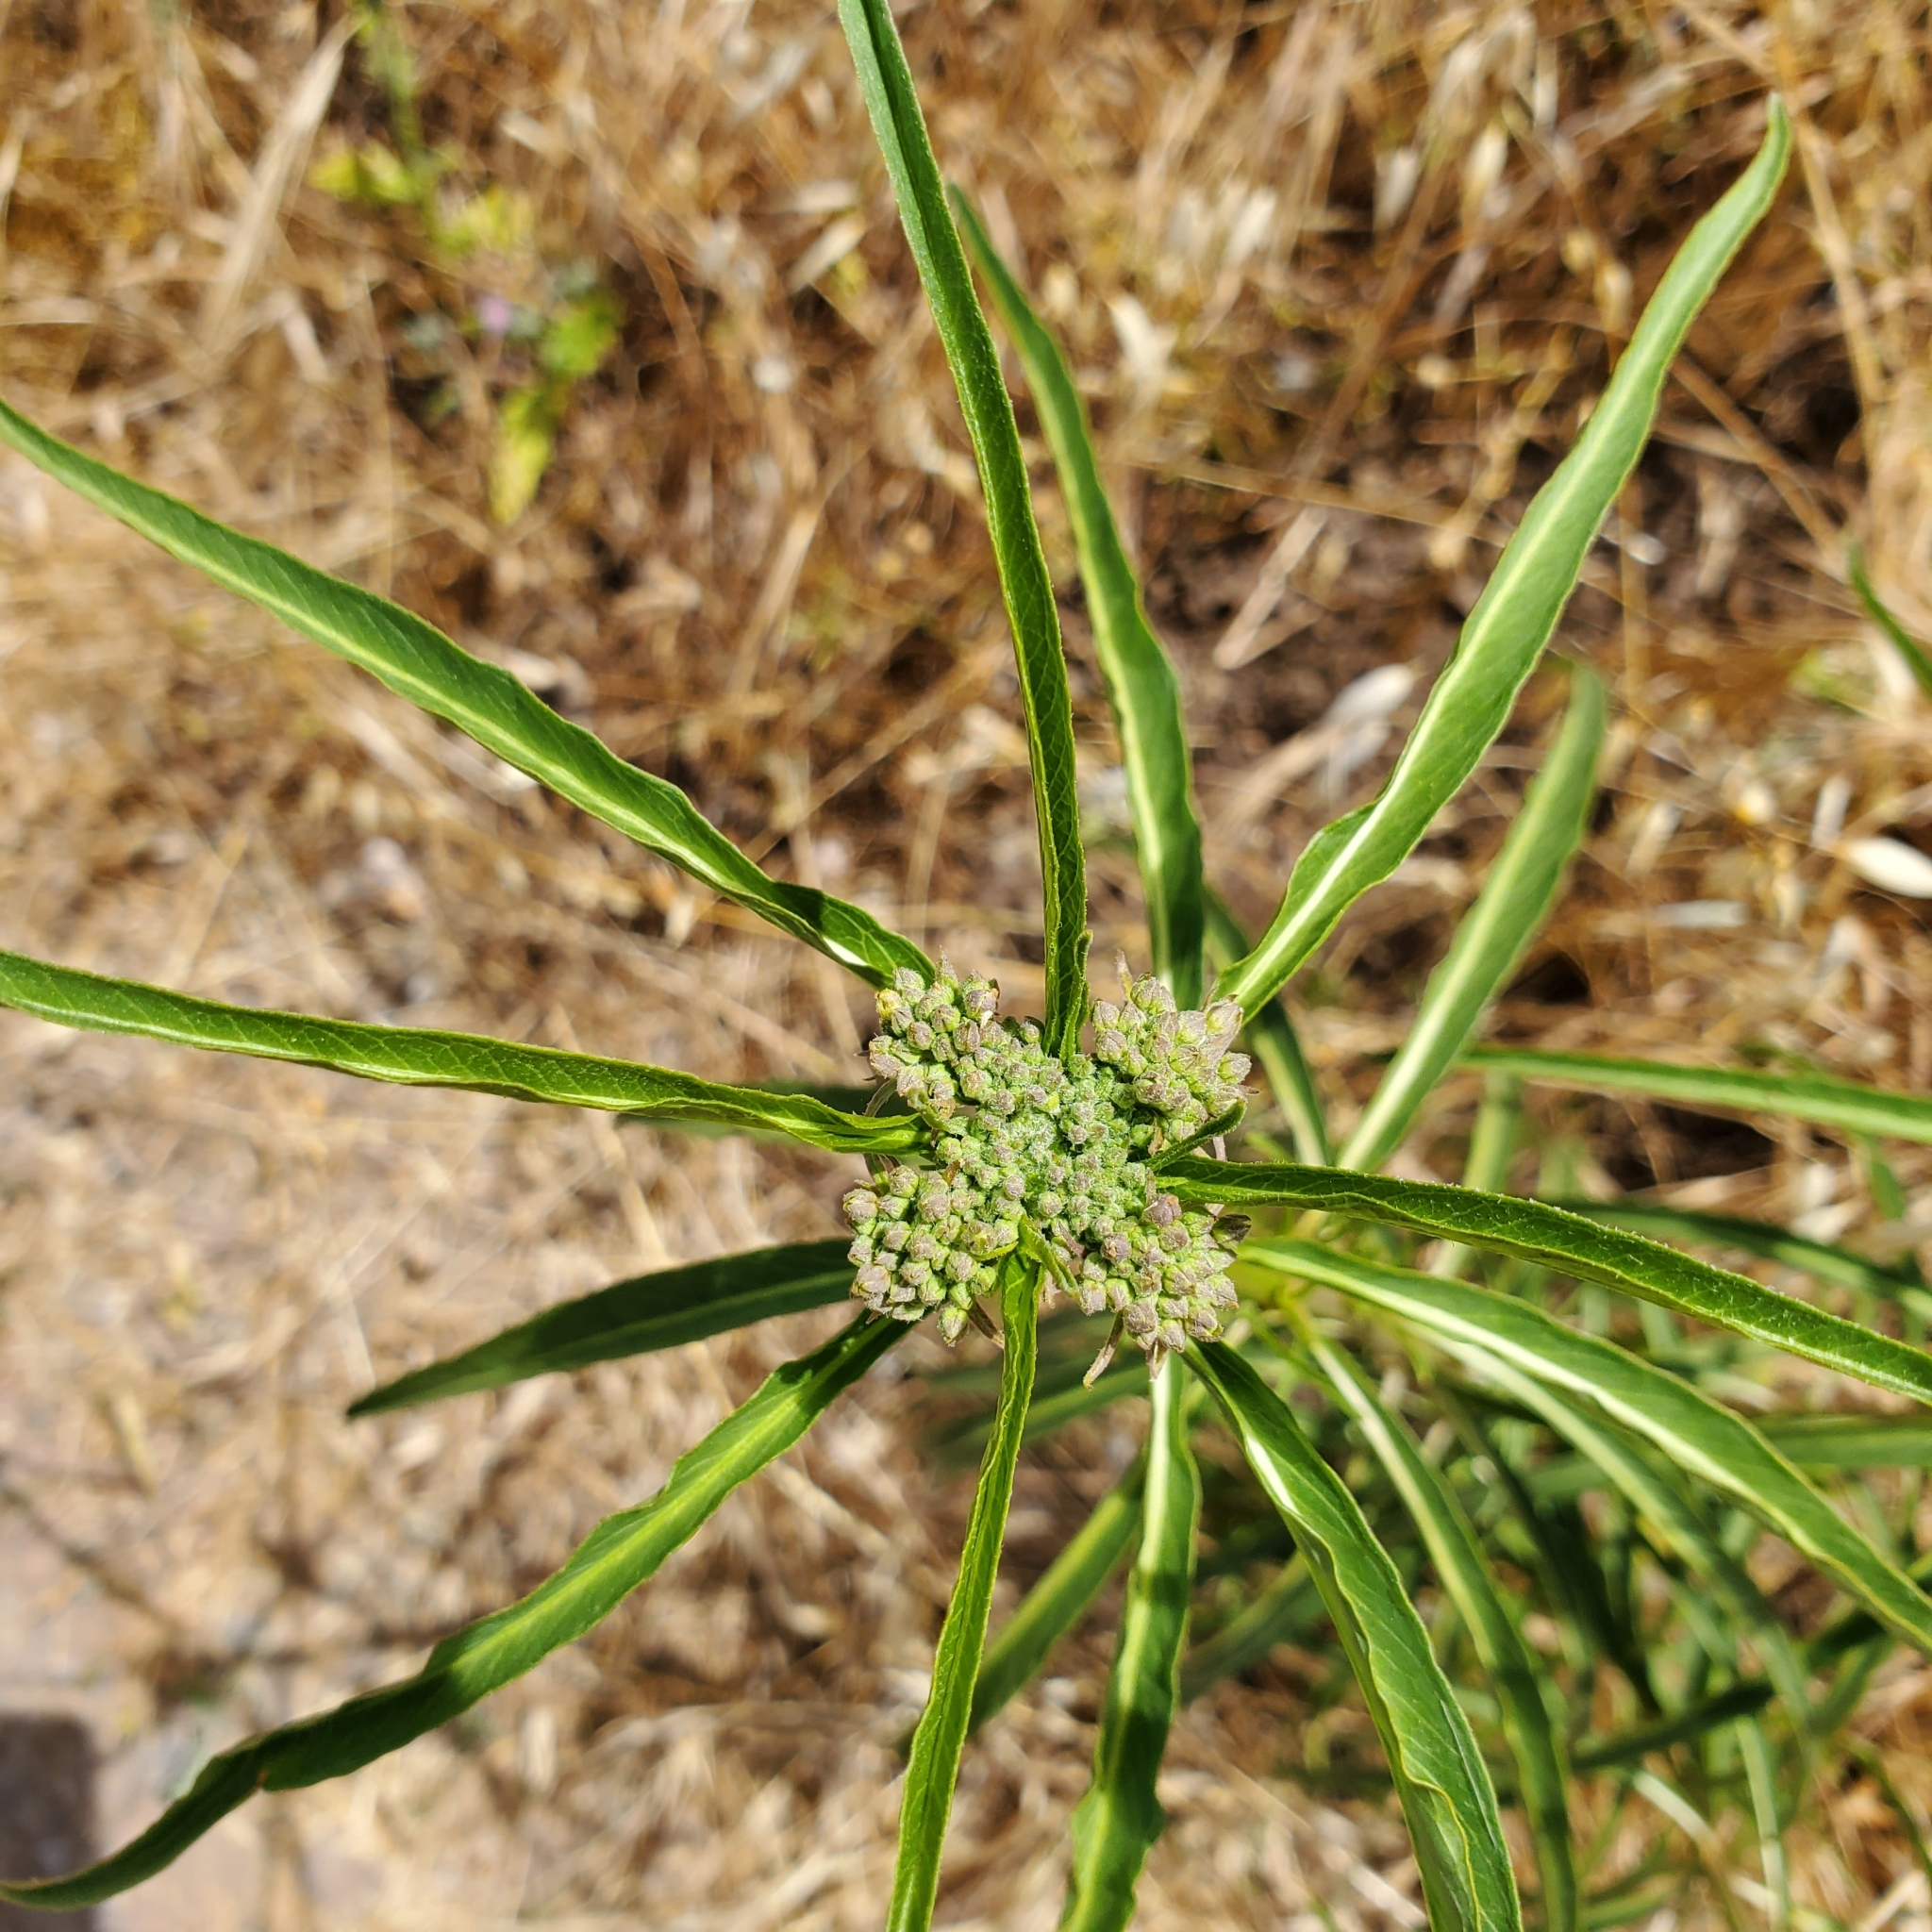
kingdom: Plantae
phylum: Tracheophyta
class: Magnoliopsida
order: Gentianales
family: Apocynaceae
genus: Asclepias
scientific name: Asclepias fascicularis
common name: Mexican milkweed
